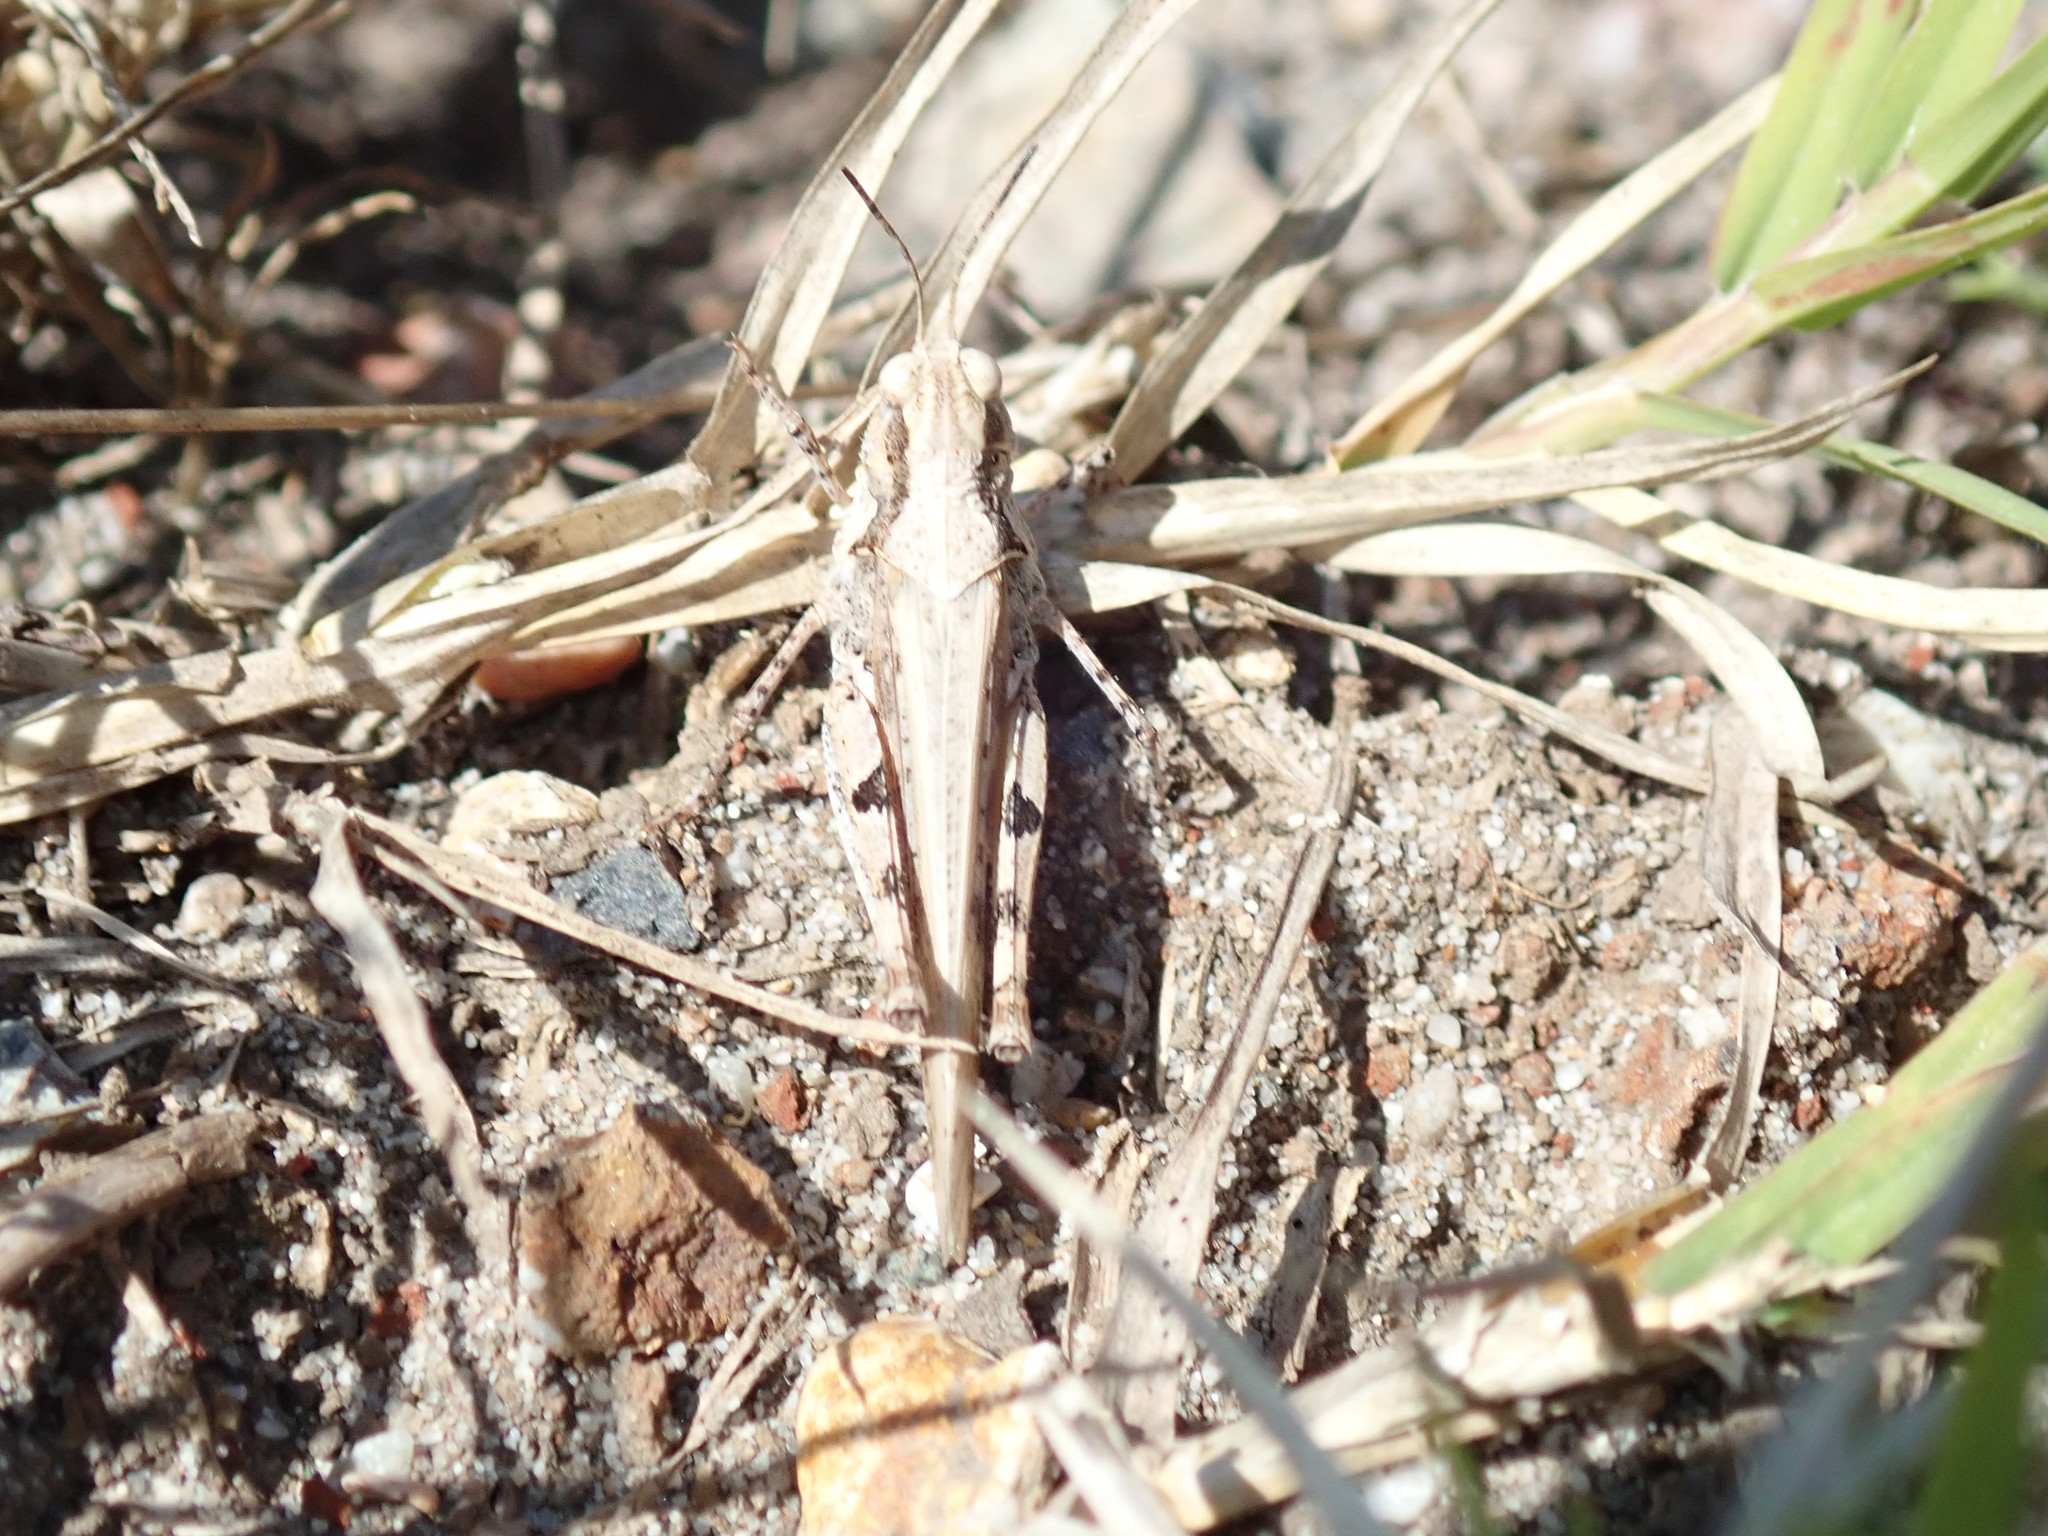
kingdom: Animalia
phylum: Arthropoda
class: Insecta
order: Orthoptera
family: Acrididae
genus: Pycnostictus
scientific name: Pycnostictus seriatus
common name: Common bandwing
